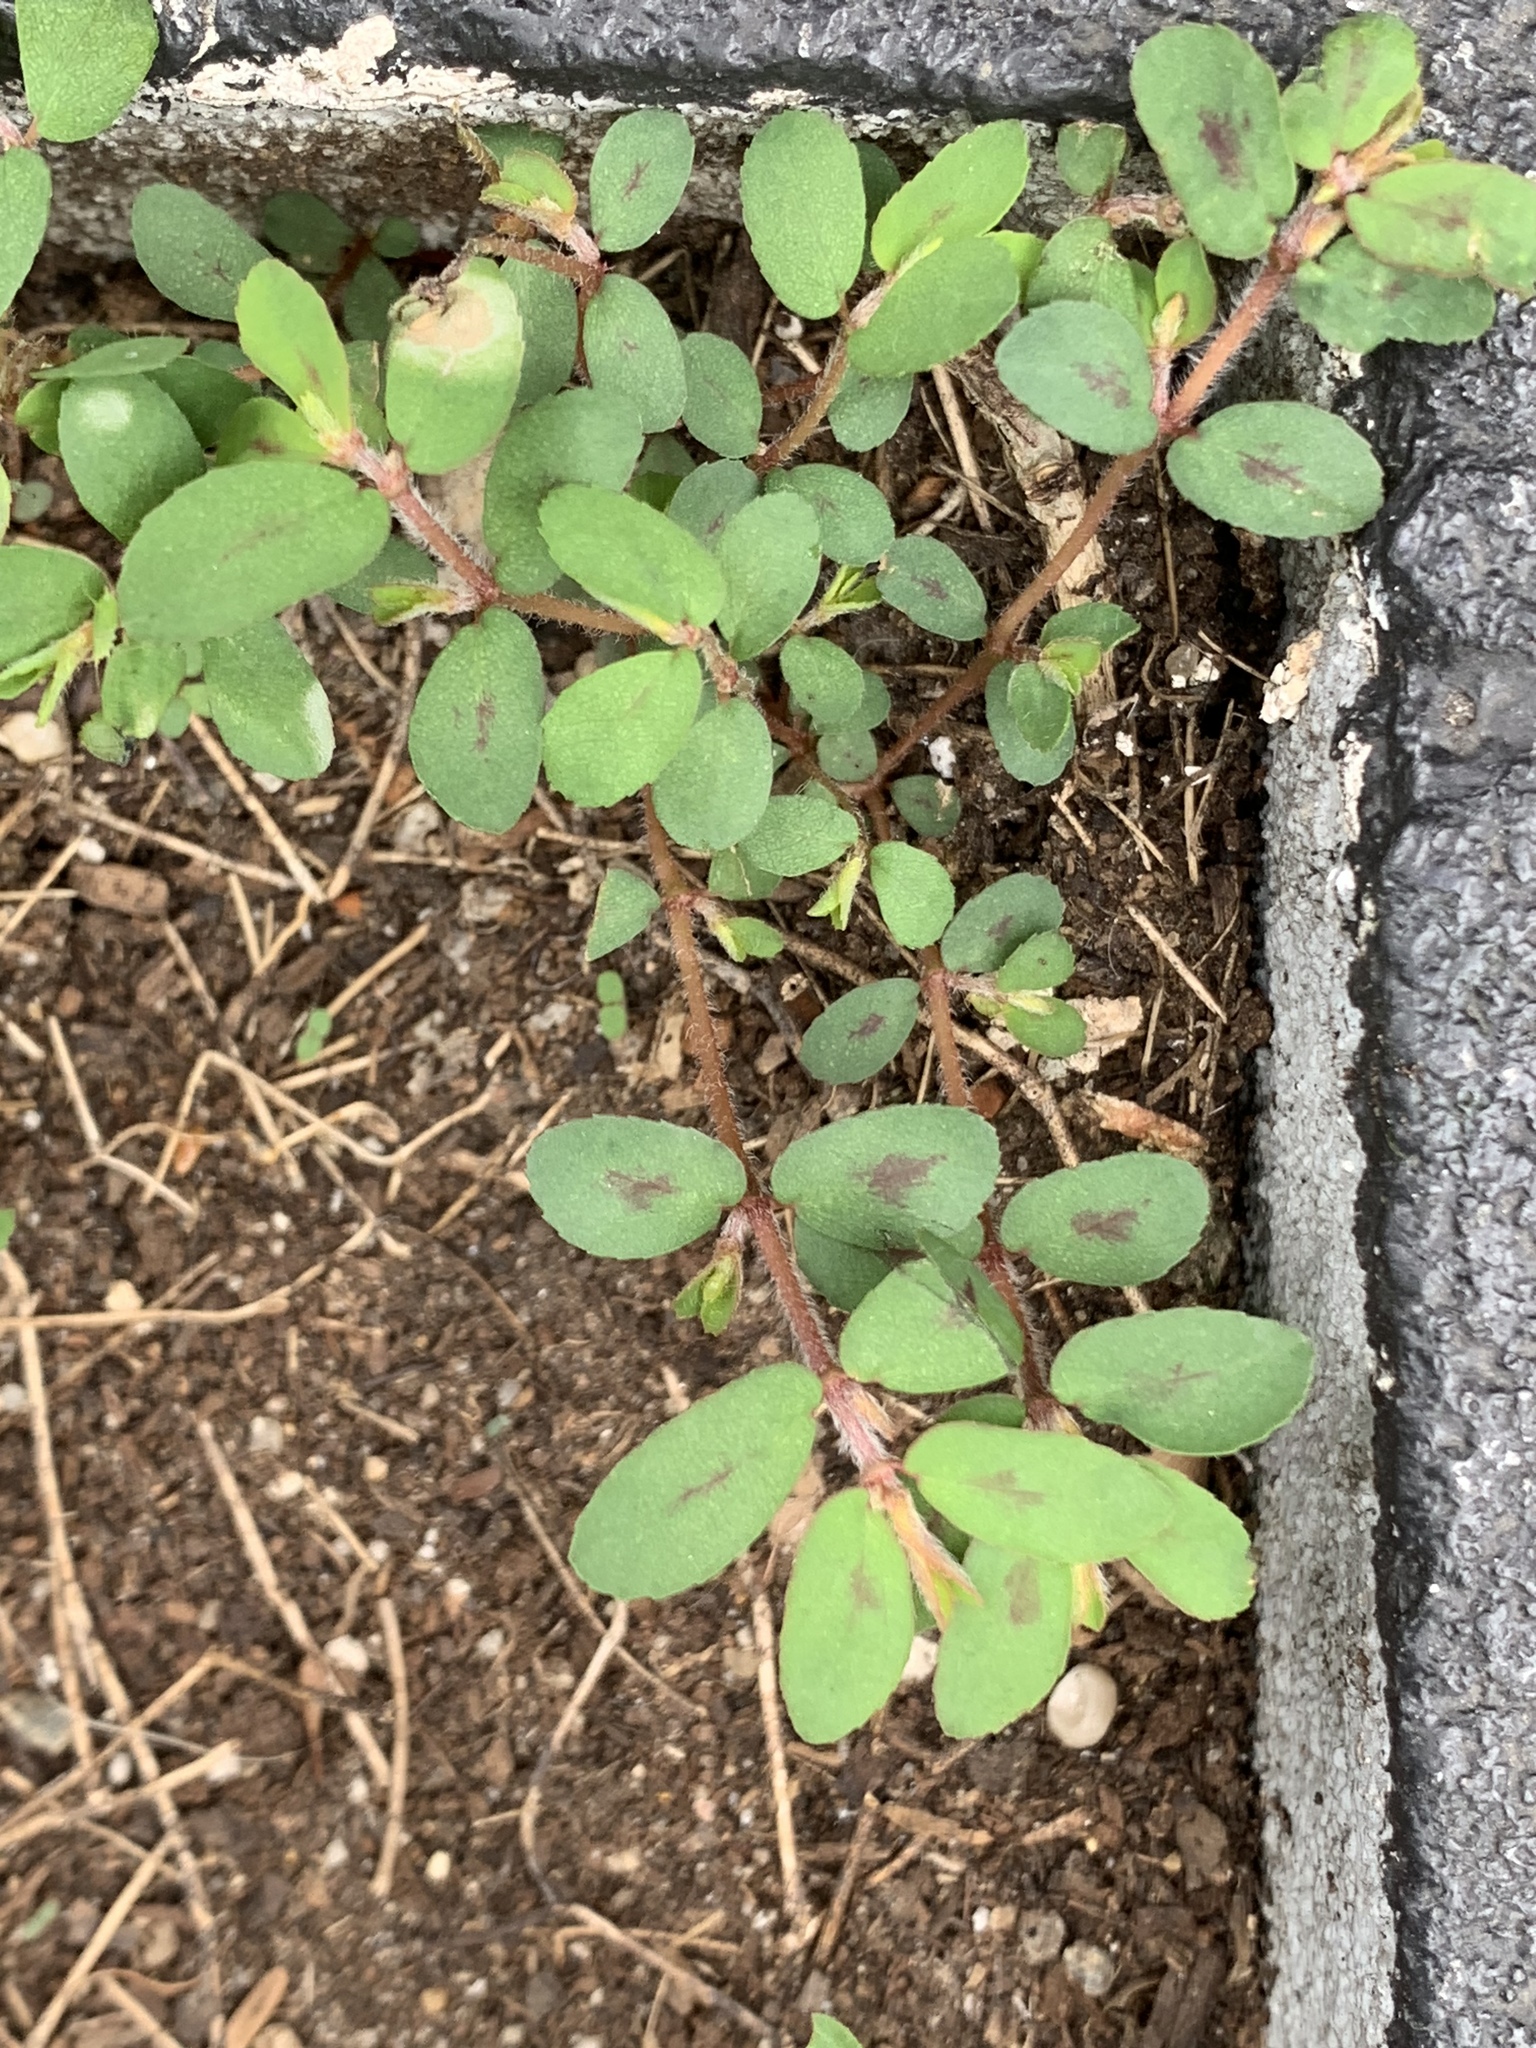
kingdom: Plantae
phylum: Tracheophyta
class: Magnoliopsida
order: Malpighiales
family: Euphorbiaceae
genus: Euphorbia
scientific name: Euphorbia maculata
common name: Spotted spurge
